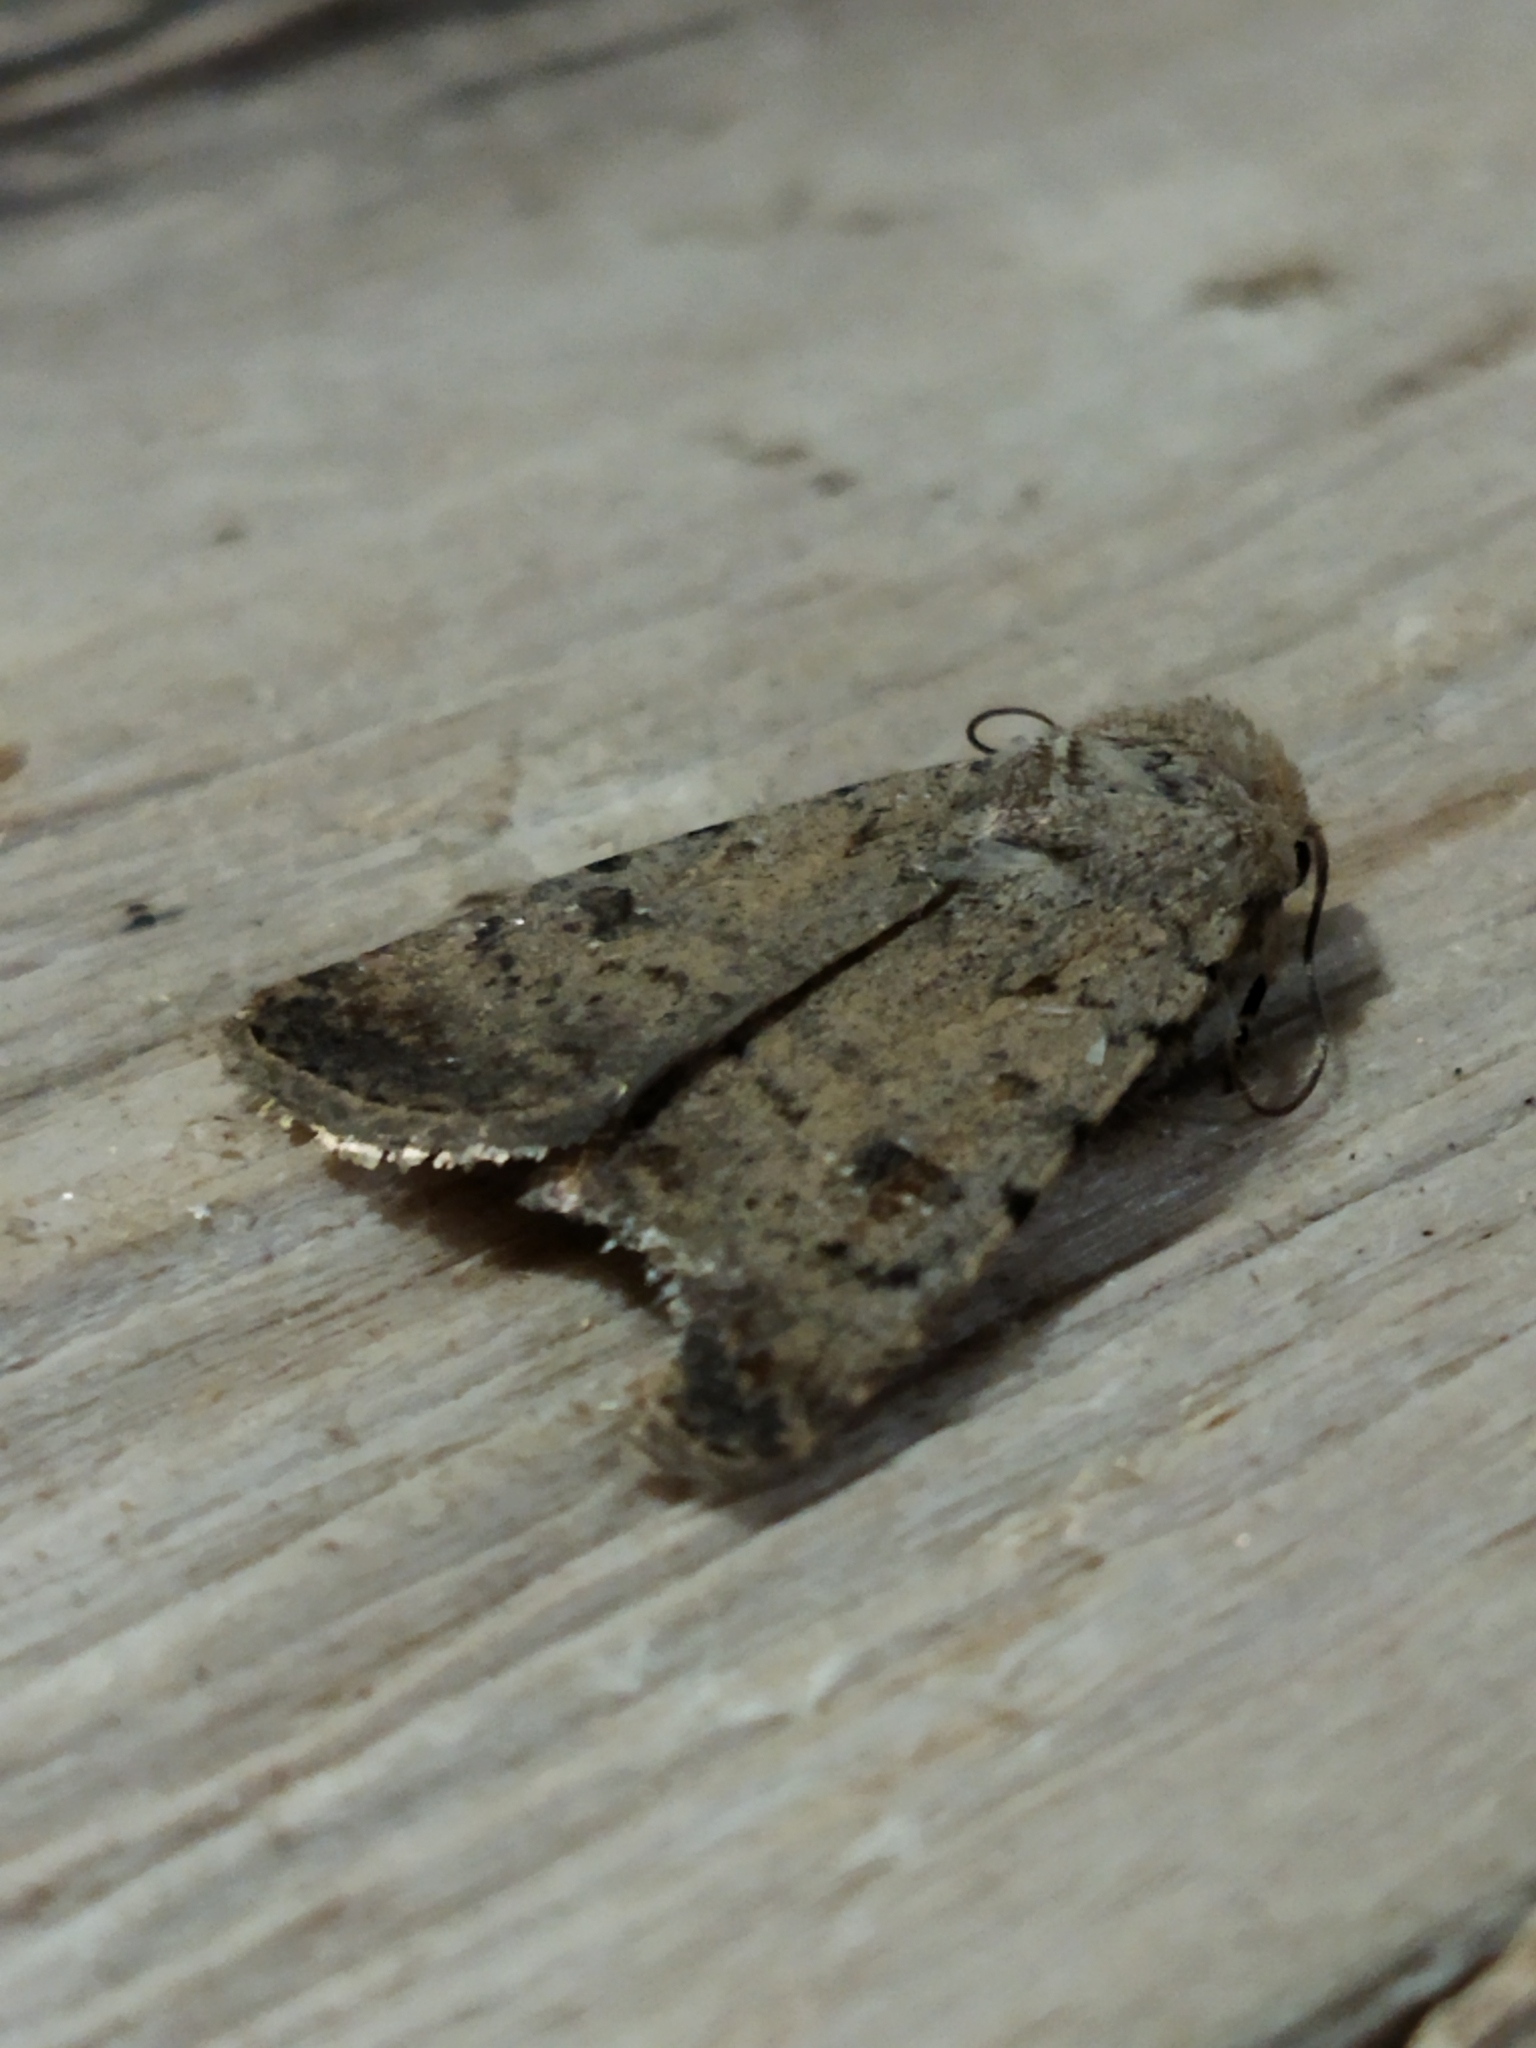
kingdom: Animalia
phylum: Arthropoda
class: Insecta
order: Lepidoptera
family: Noctuidae
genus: Caradrina
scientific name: Caradrina clavipalpis
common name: Pale mottled willow
